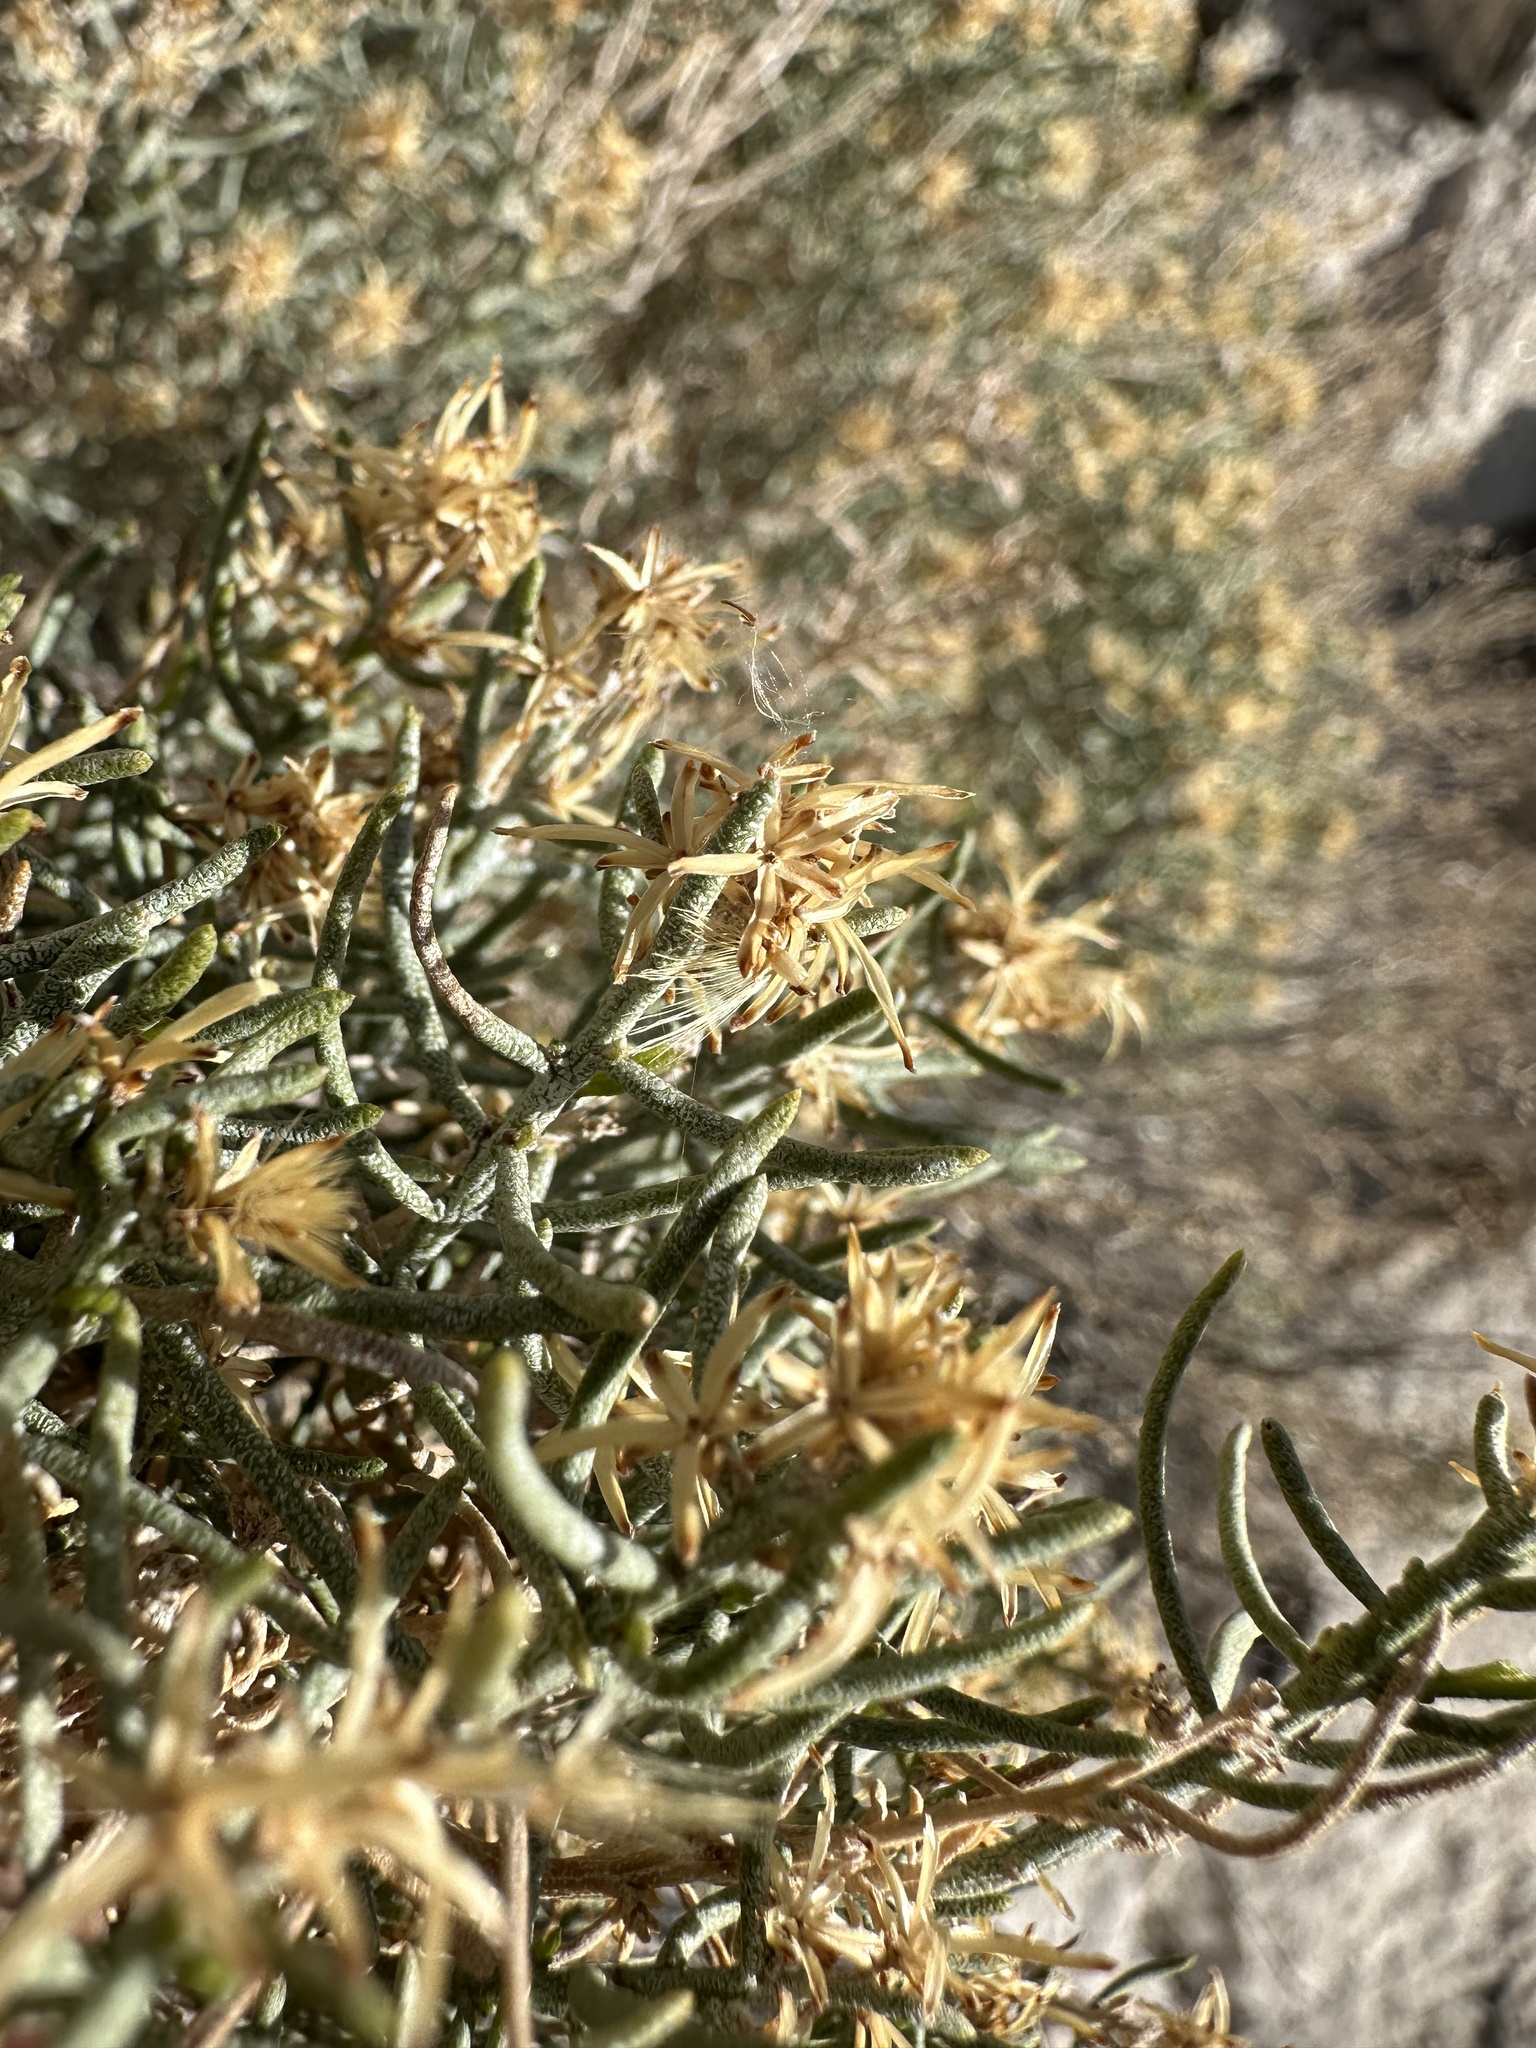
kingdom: Plantae
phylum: Tracheophyta
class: Magnoliopsida
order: Asterales
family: Asteraceae
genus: Ericameria
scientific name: Ericameria teretifolia
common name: Round-leaf rabbitbrush
